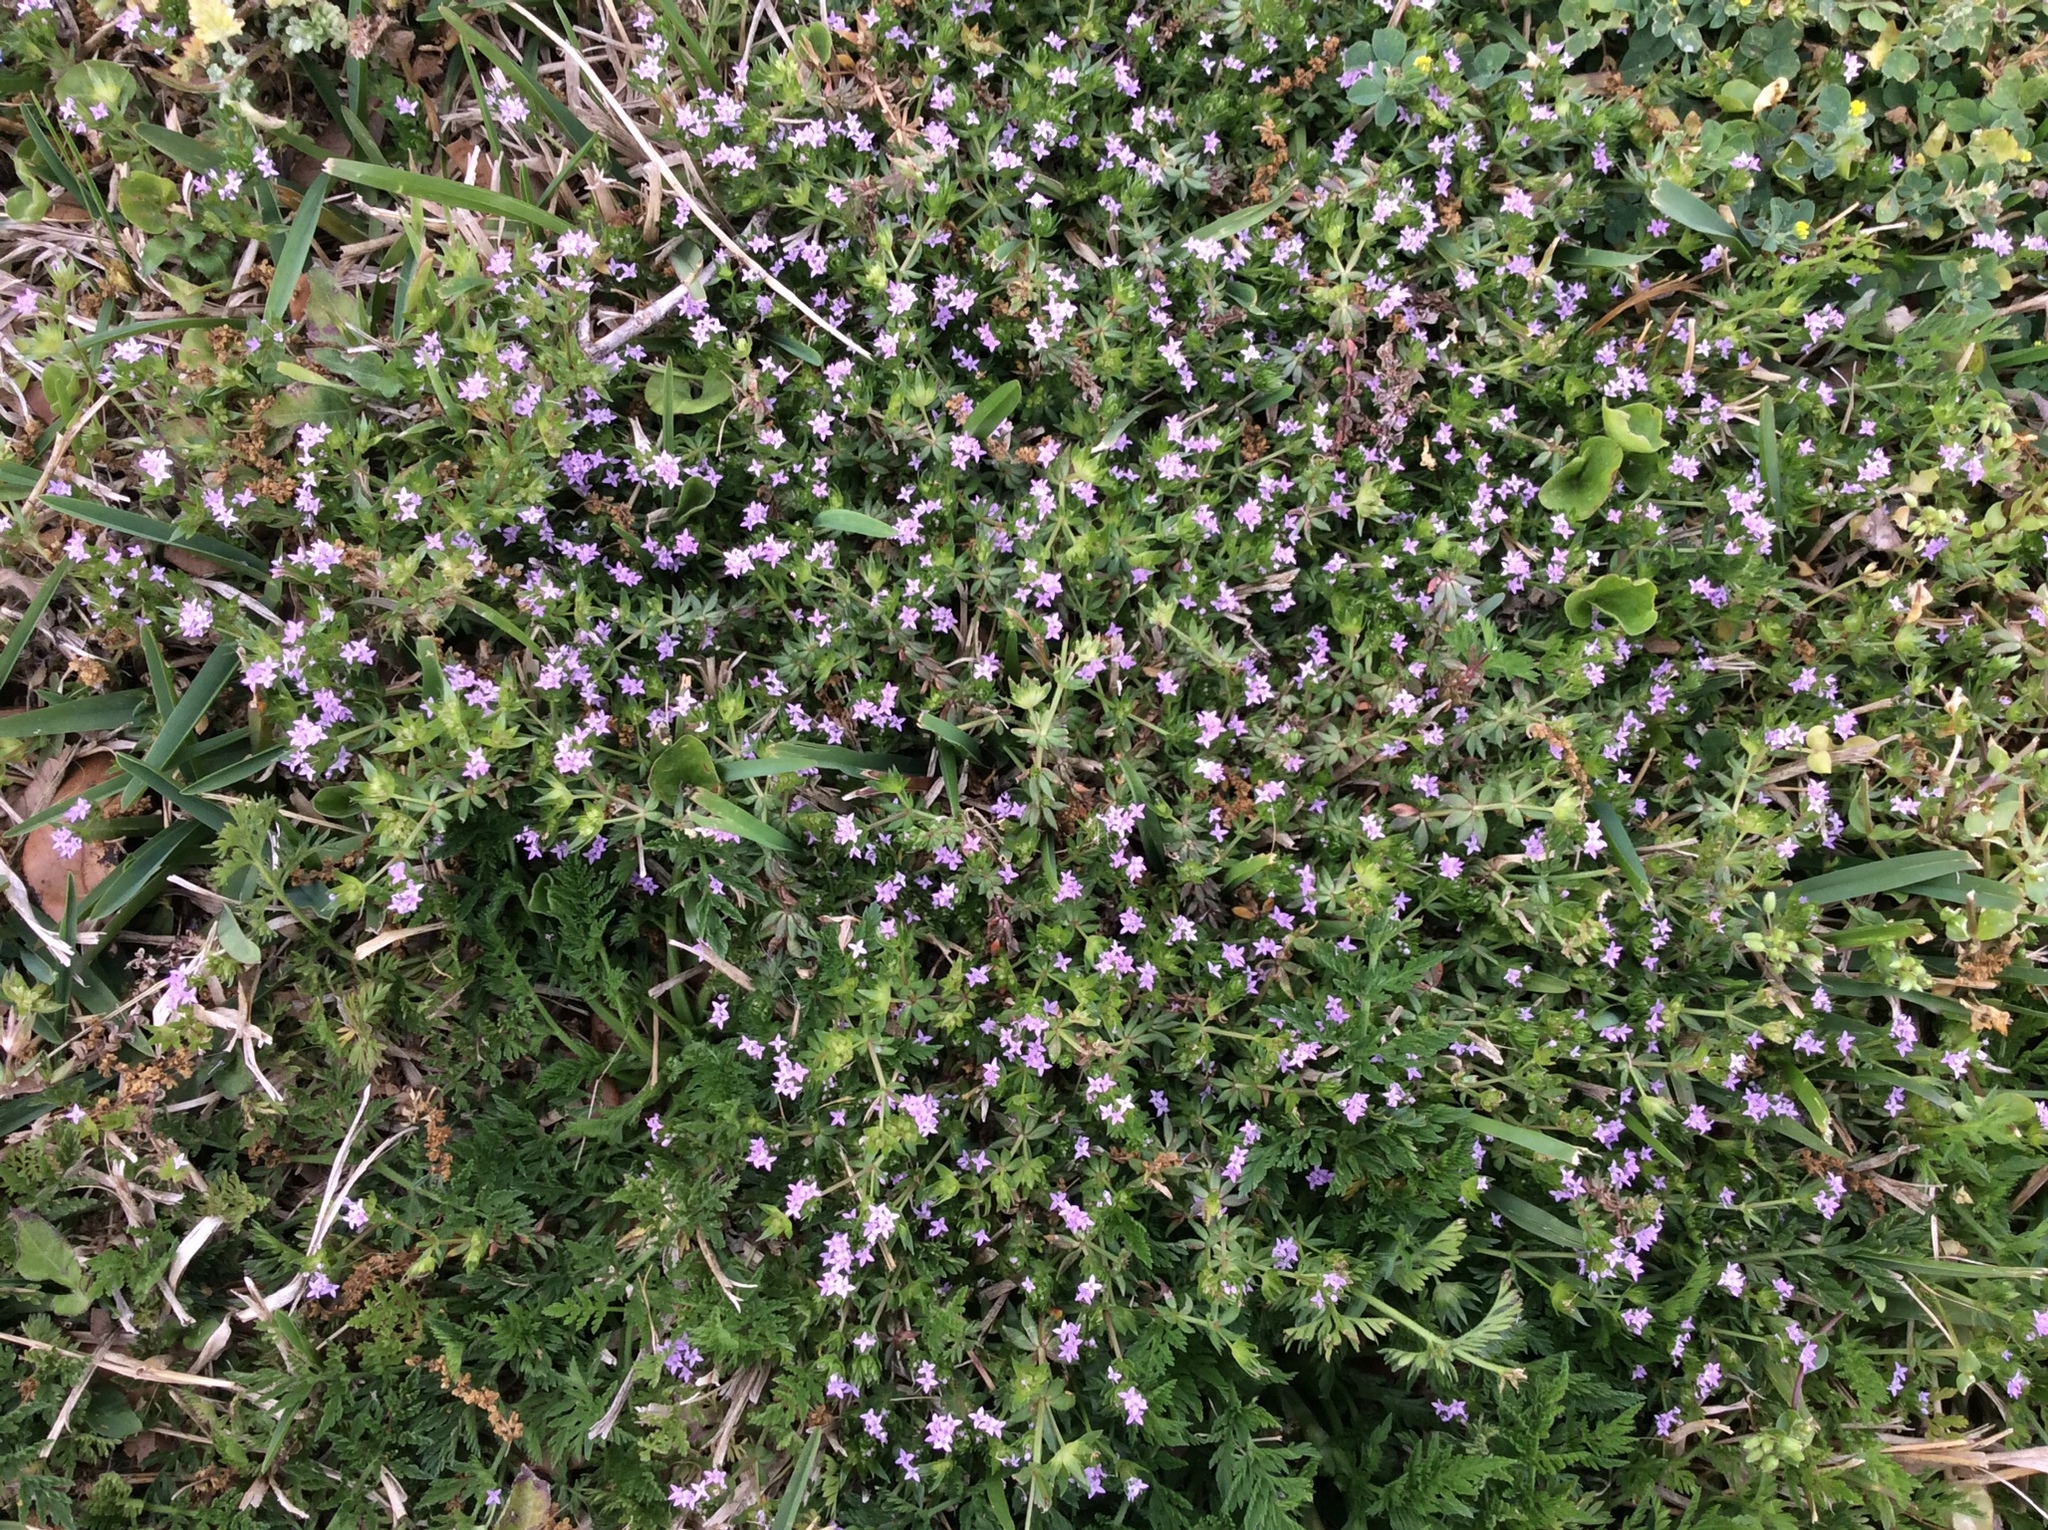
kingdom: Plantae
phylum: Tracheophyta
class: Magnoliopsida
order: Gentianales
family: Rubiaceae
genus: Sherardia
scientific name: Sherardia arvensis
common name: Field madder
